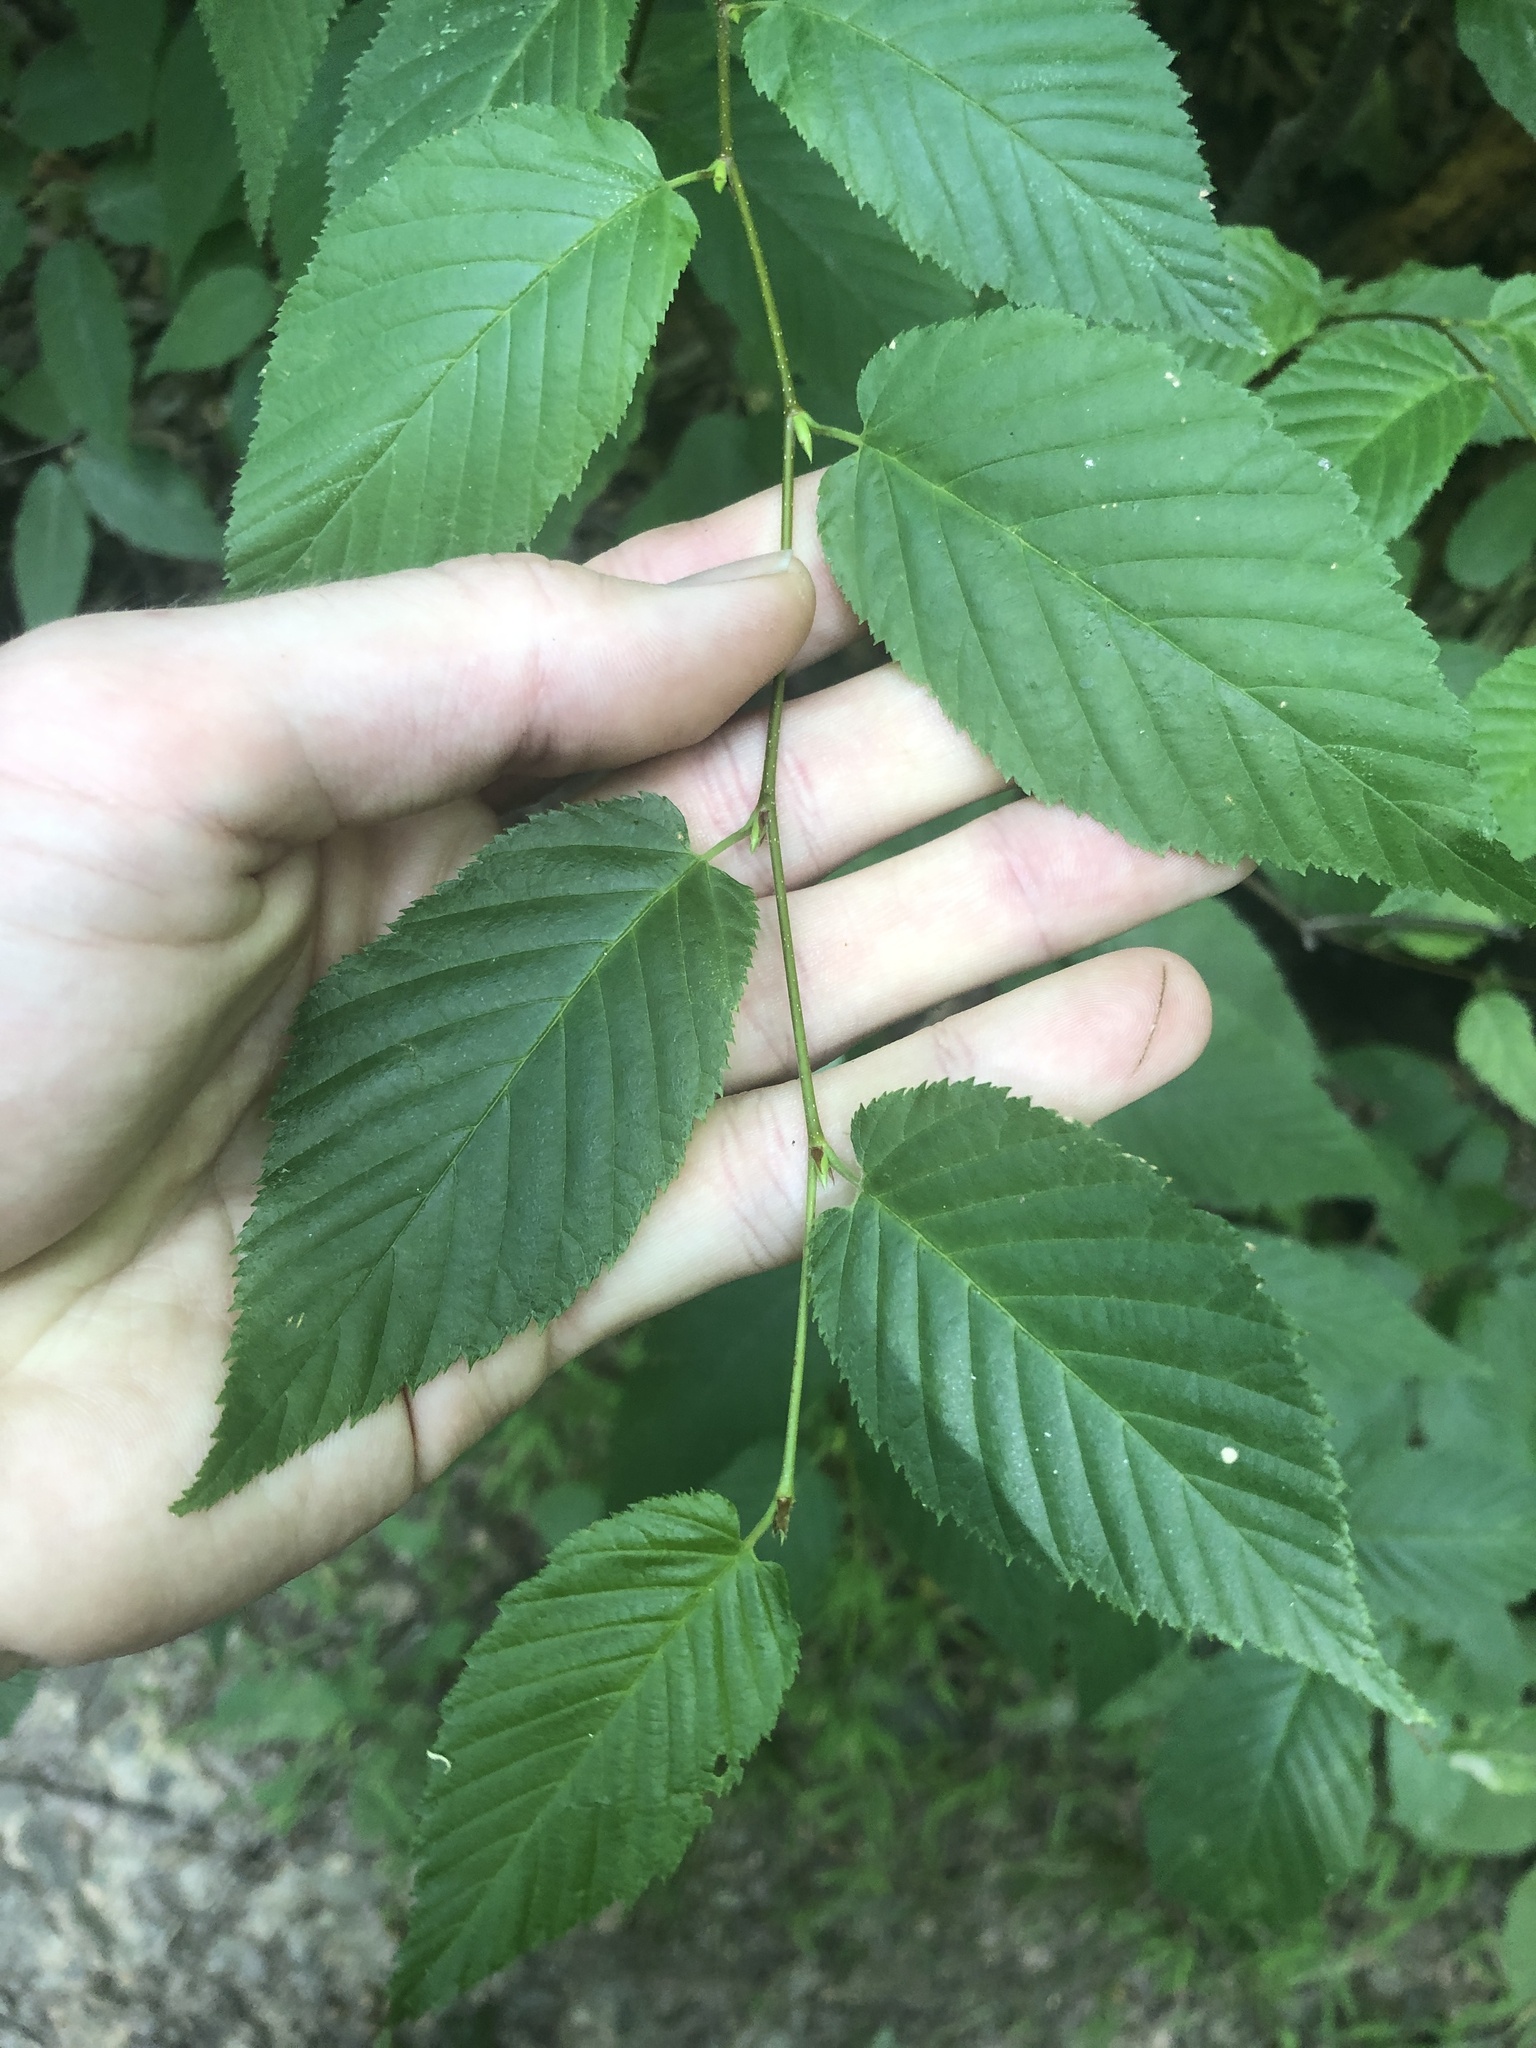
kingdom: Plantae
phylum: Tracheophyta
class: Magnoliopsida
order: Fagales
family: Betulaceae
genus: Betula
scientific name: Betula lenta
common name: Black birch
